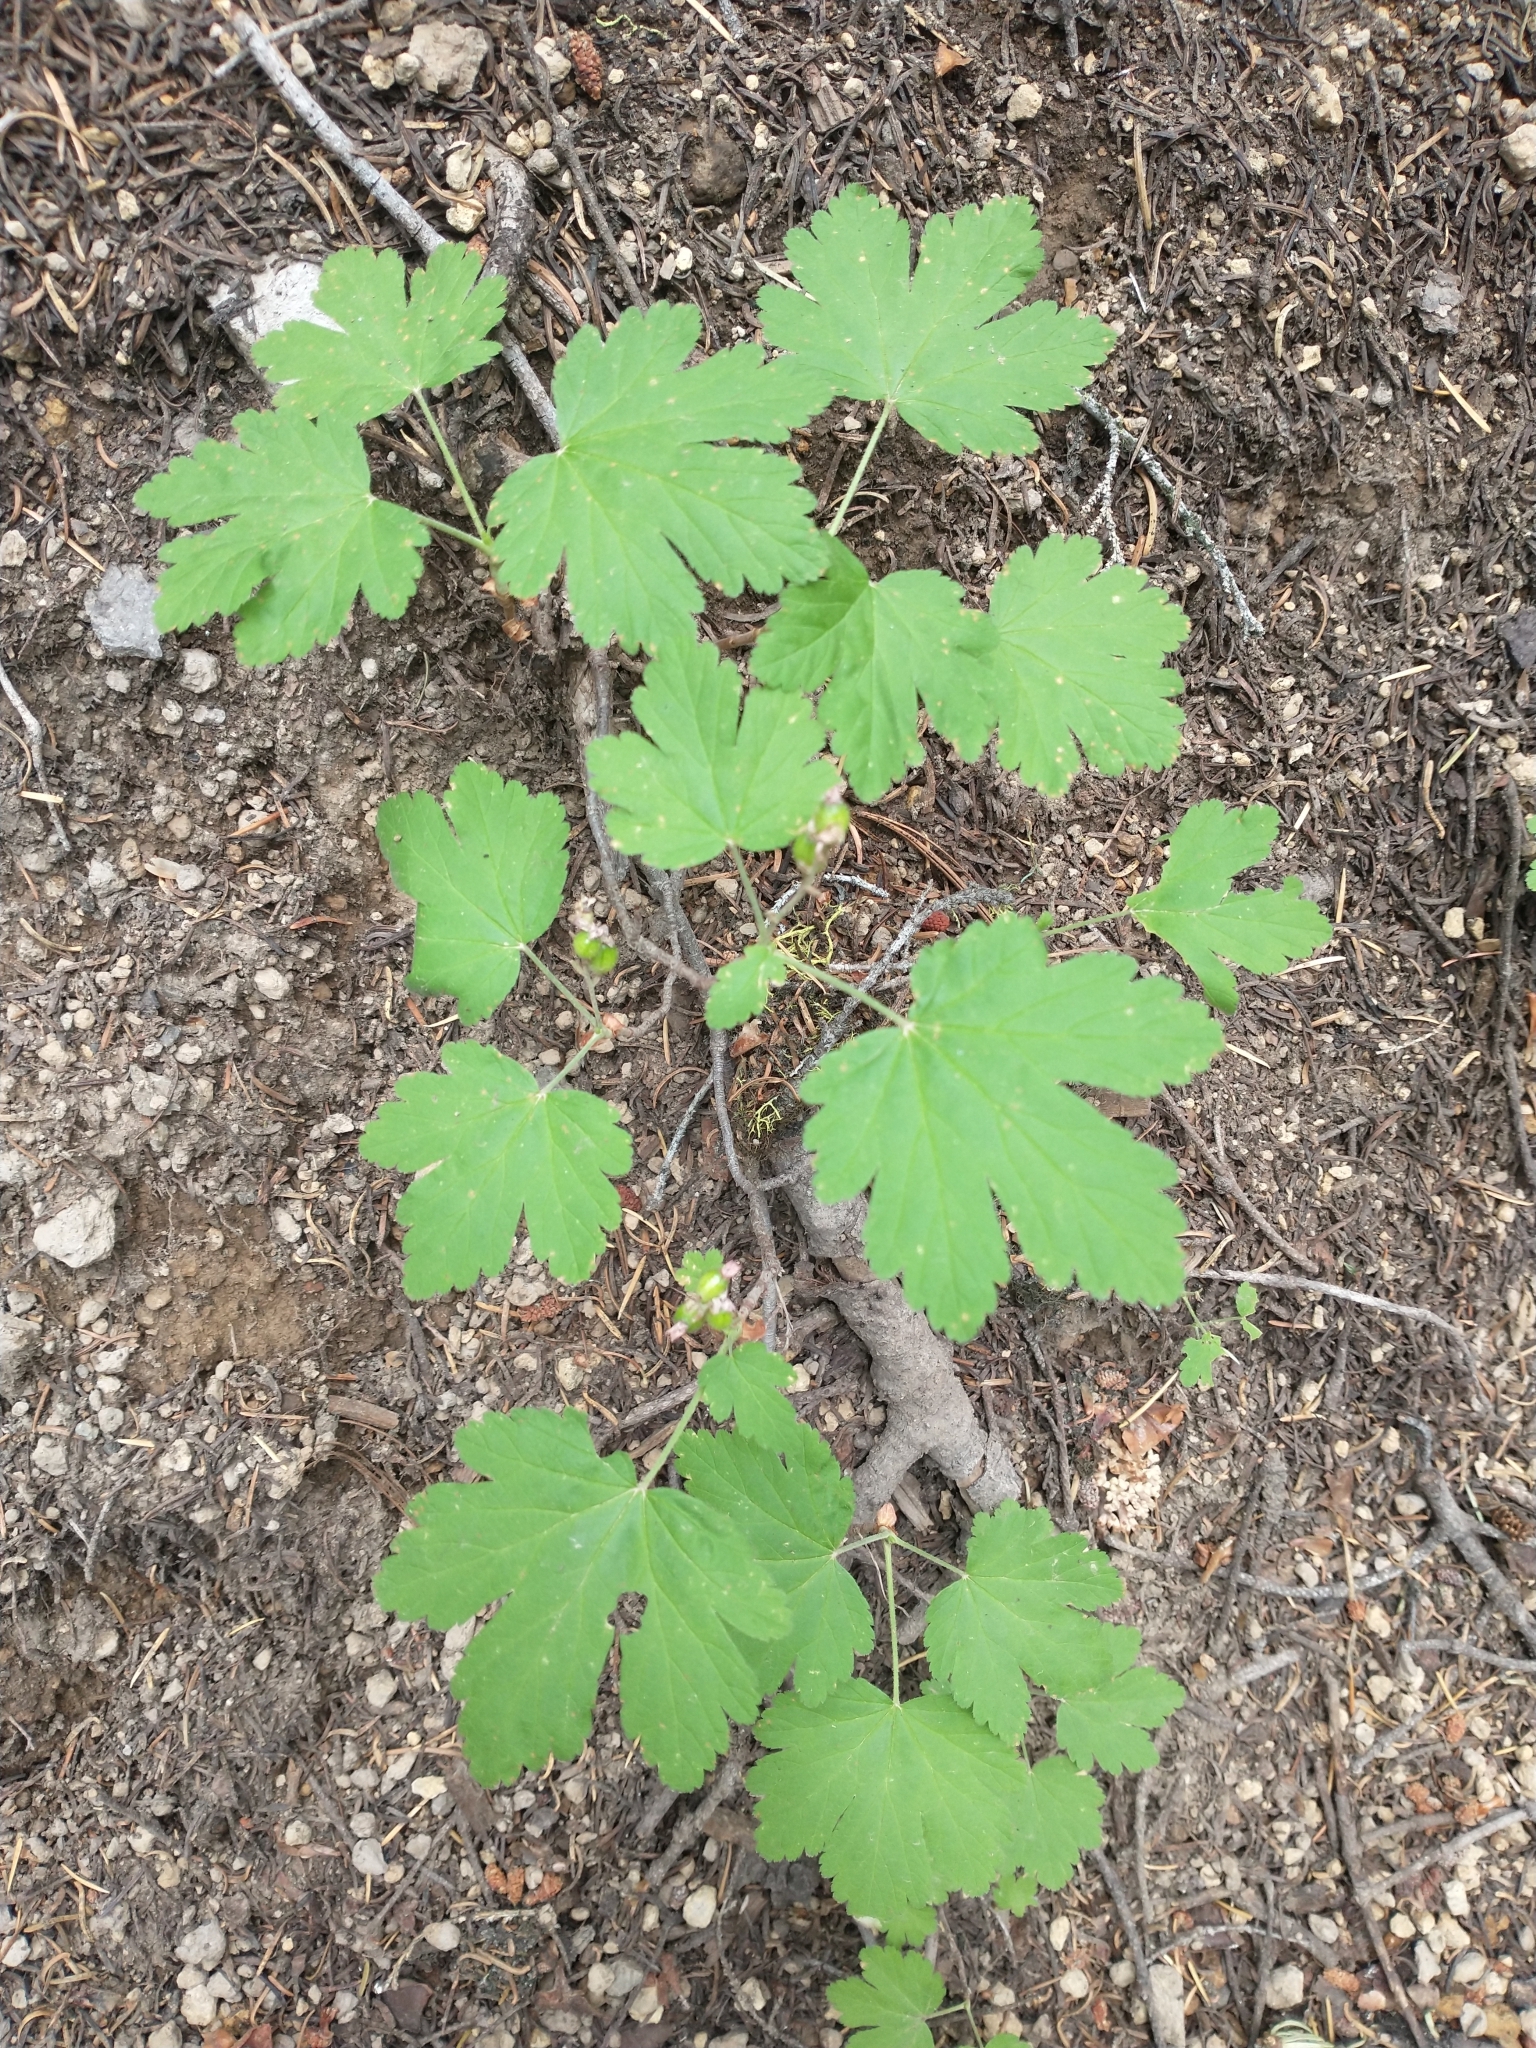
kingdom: Plantae
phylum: Tracheophyta
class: Magnoliopsida
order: Saxifragales
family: Grossulariaceae
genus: Ribes
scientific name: Ribes erythrocarpum
